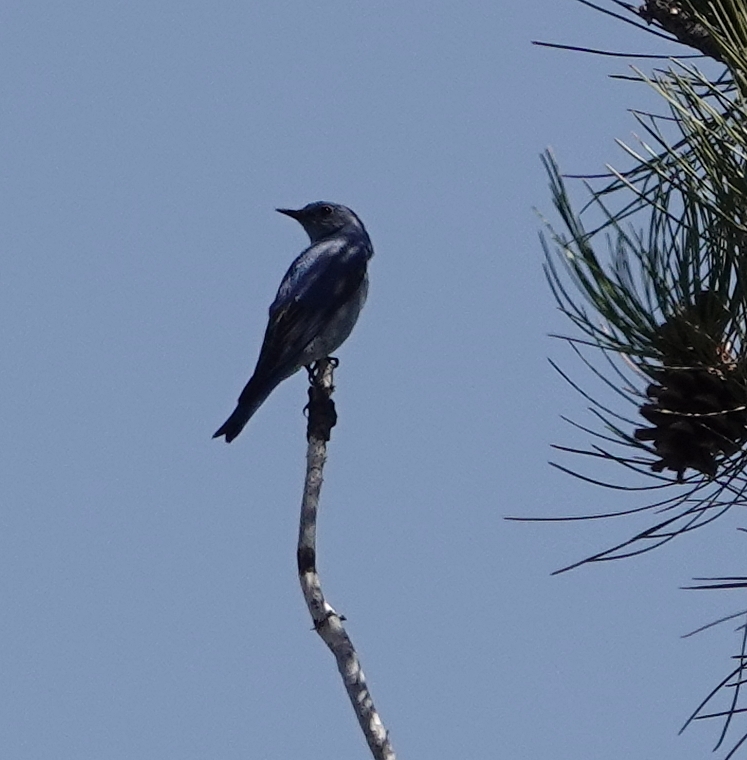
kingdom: Animalia
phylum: Chordata
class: Aves
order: Passeriformes
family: Turdidae
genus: Sialia
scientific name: Sialia currucoides
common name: Mountain bluebird
